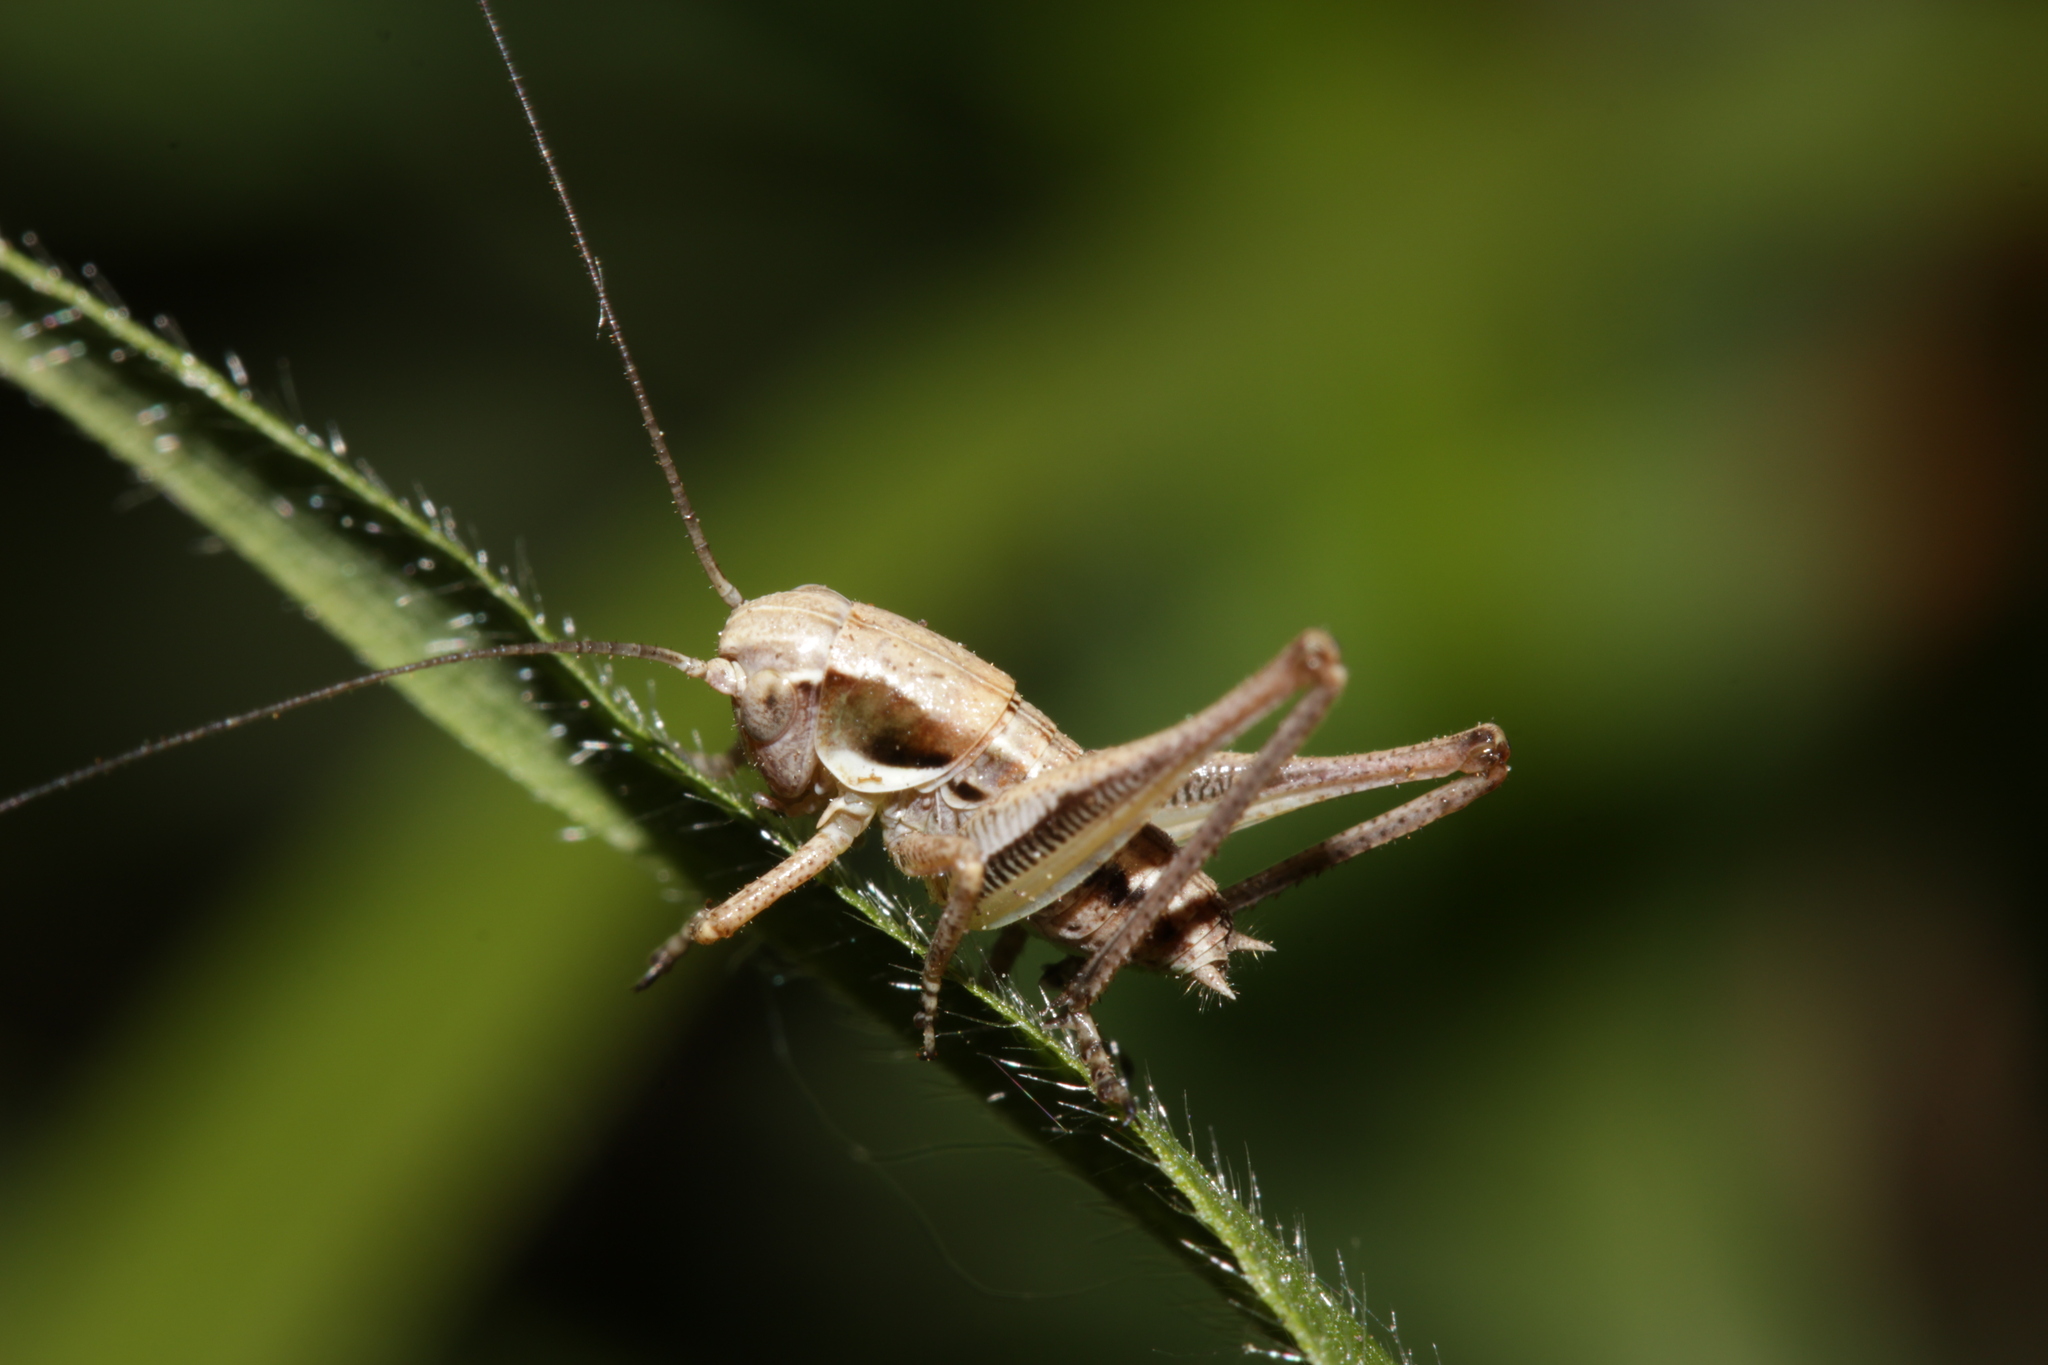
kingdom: Animalia
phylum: Arthropoda
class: Insecta
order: Orthoptera
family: Tettigoniidae
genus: Platycleis
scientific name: Platycleis grisea
